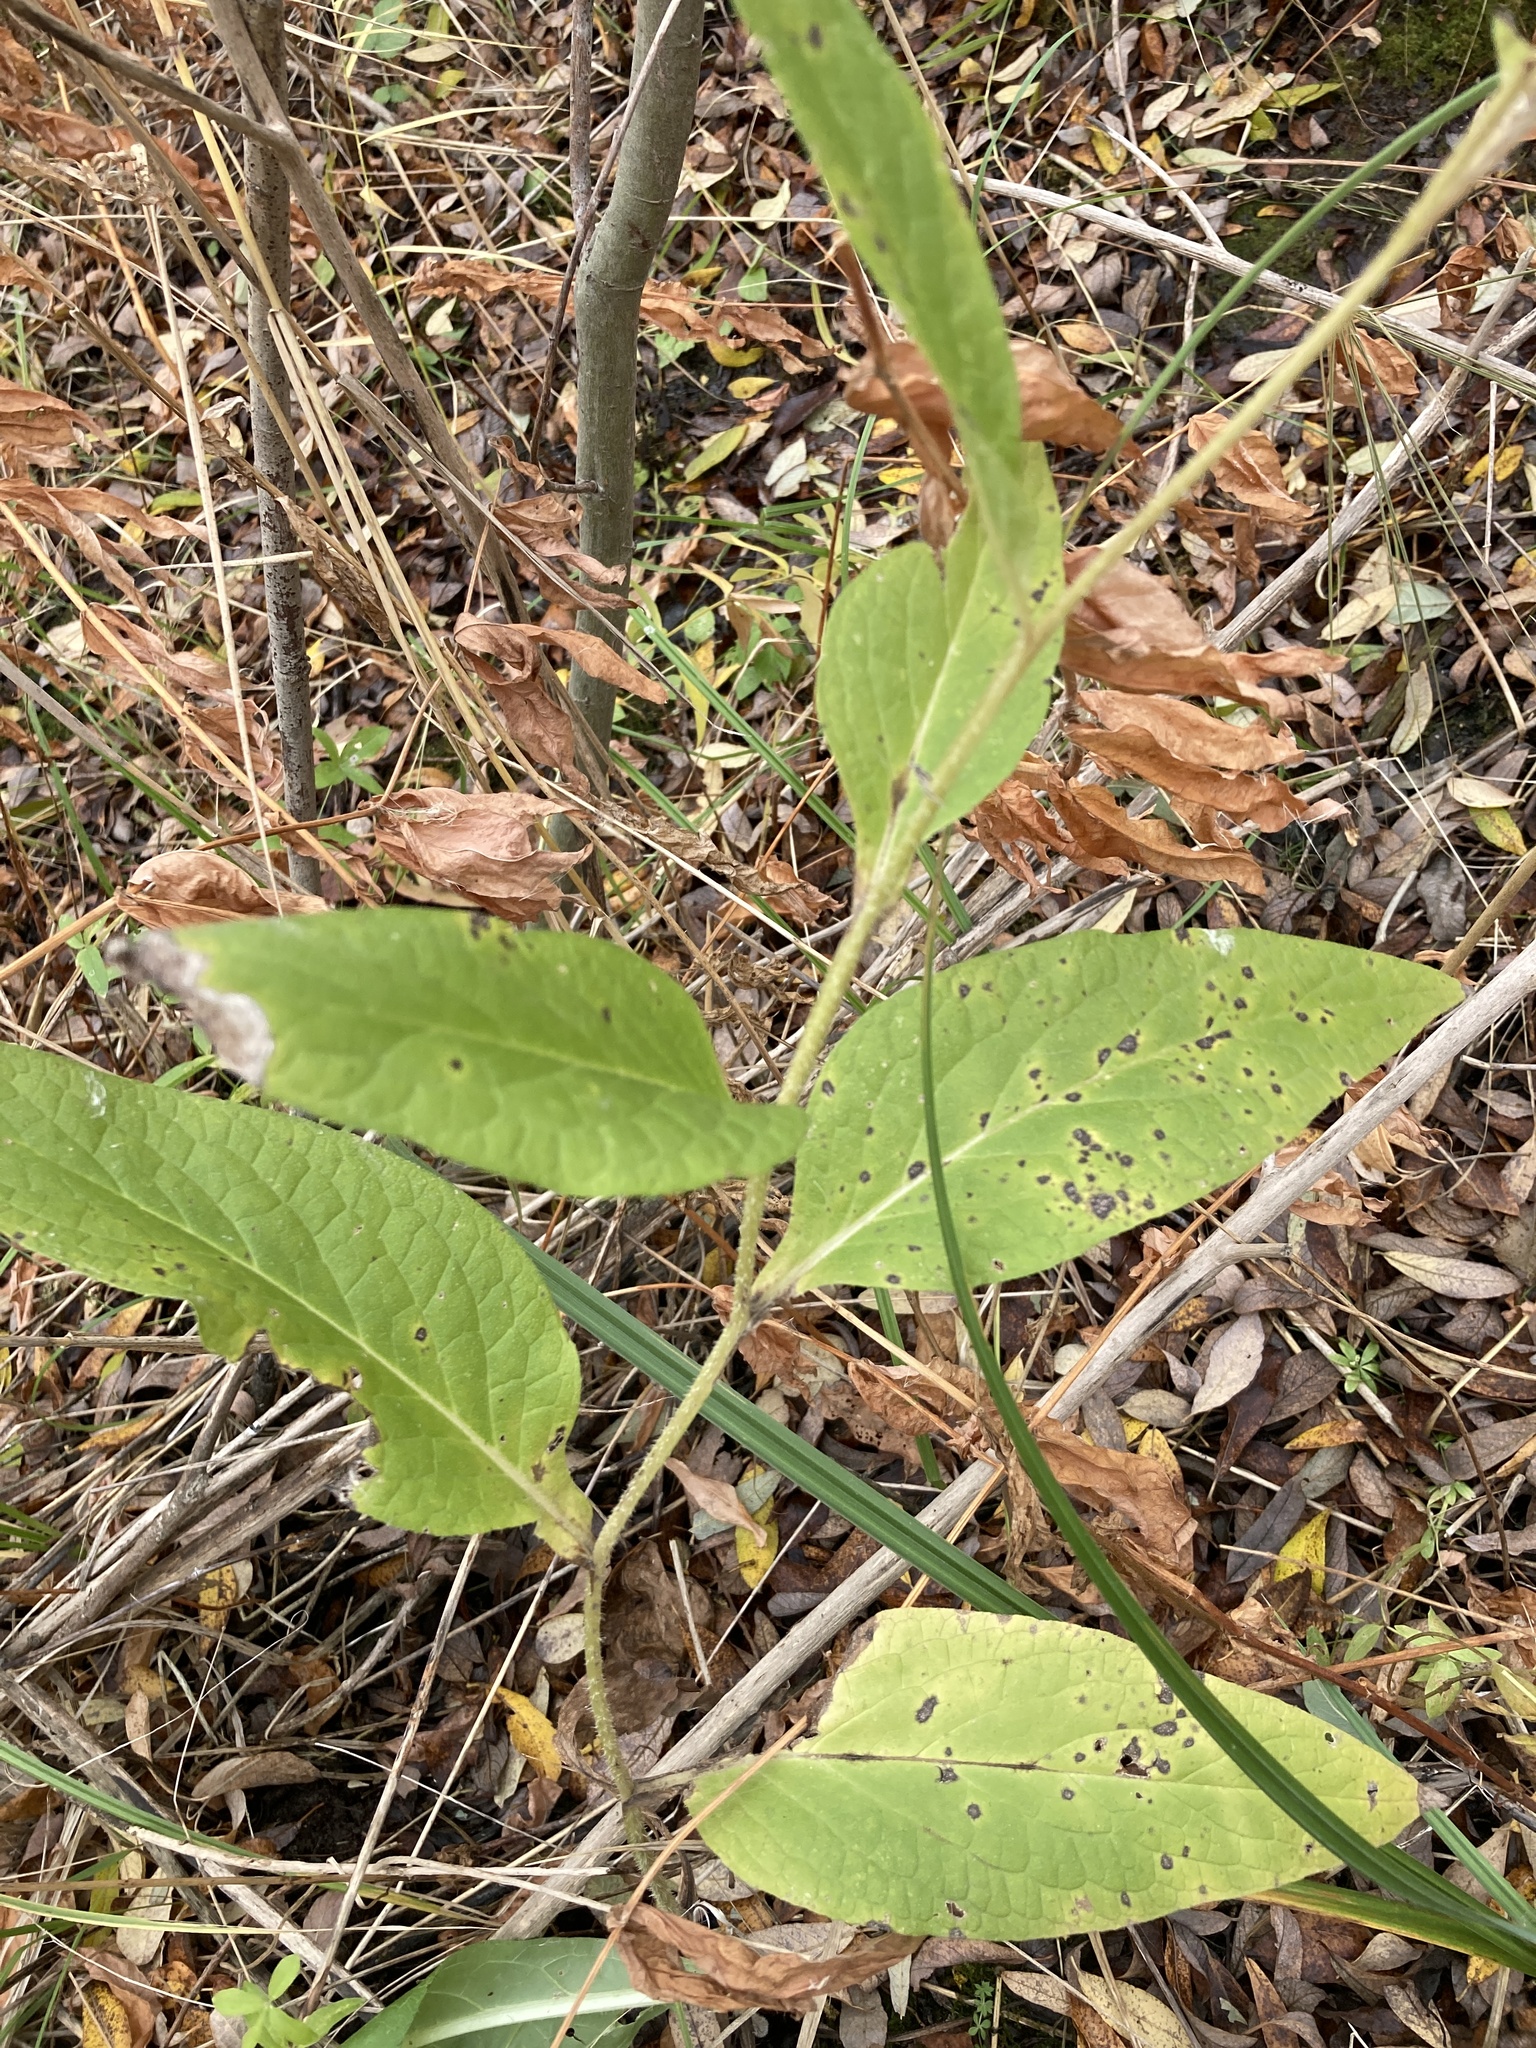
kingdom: Plantae
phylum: Tracheophyta
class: Magnoliopsida
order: Boraginales
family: Boraginaceae
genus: Symphytum
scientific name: Symphytum officinale
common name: Common comfrey
